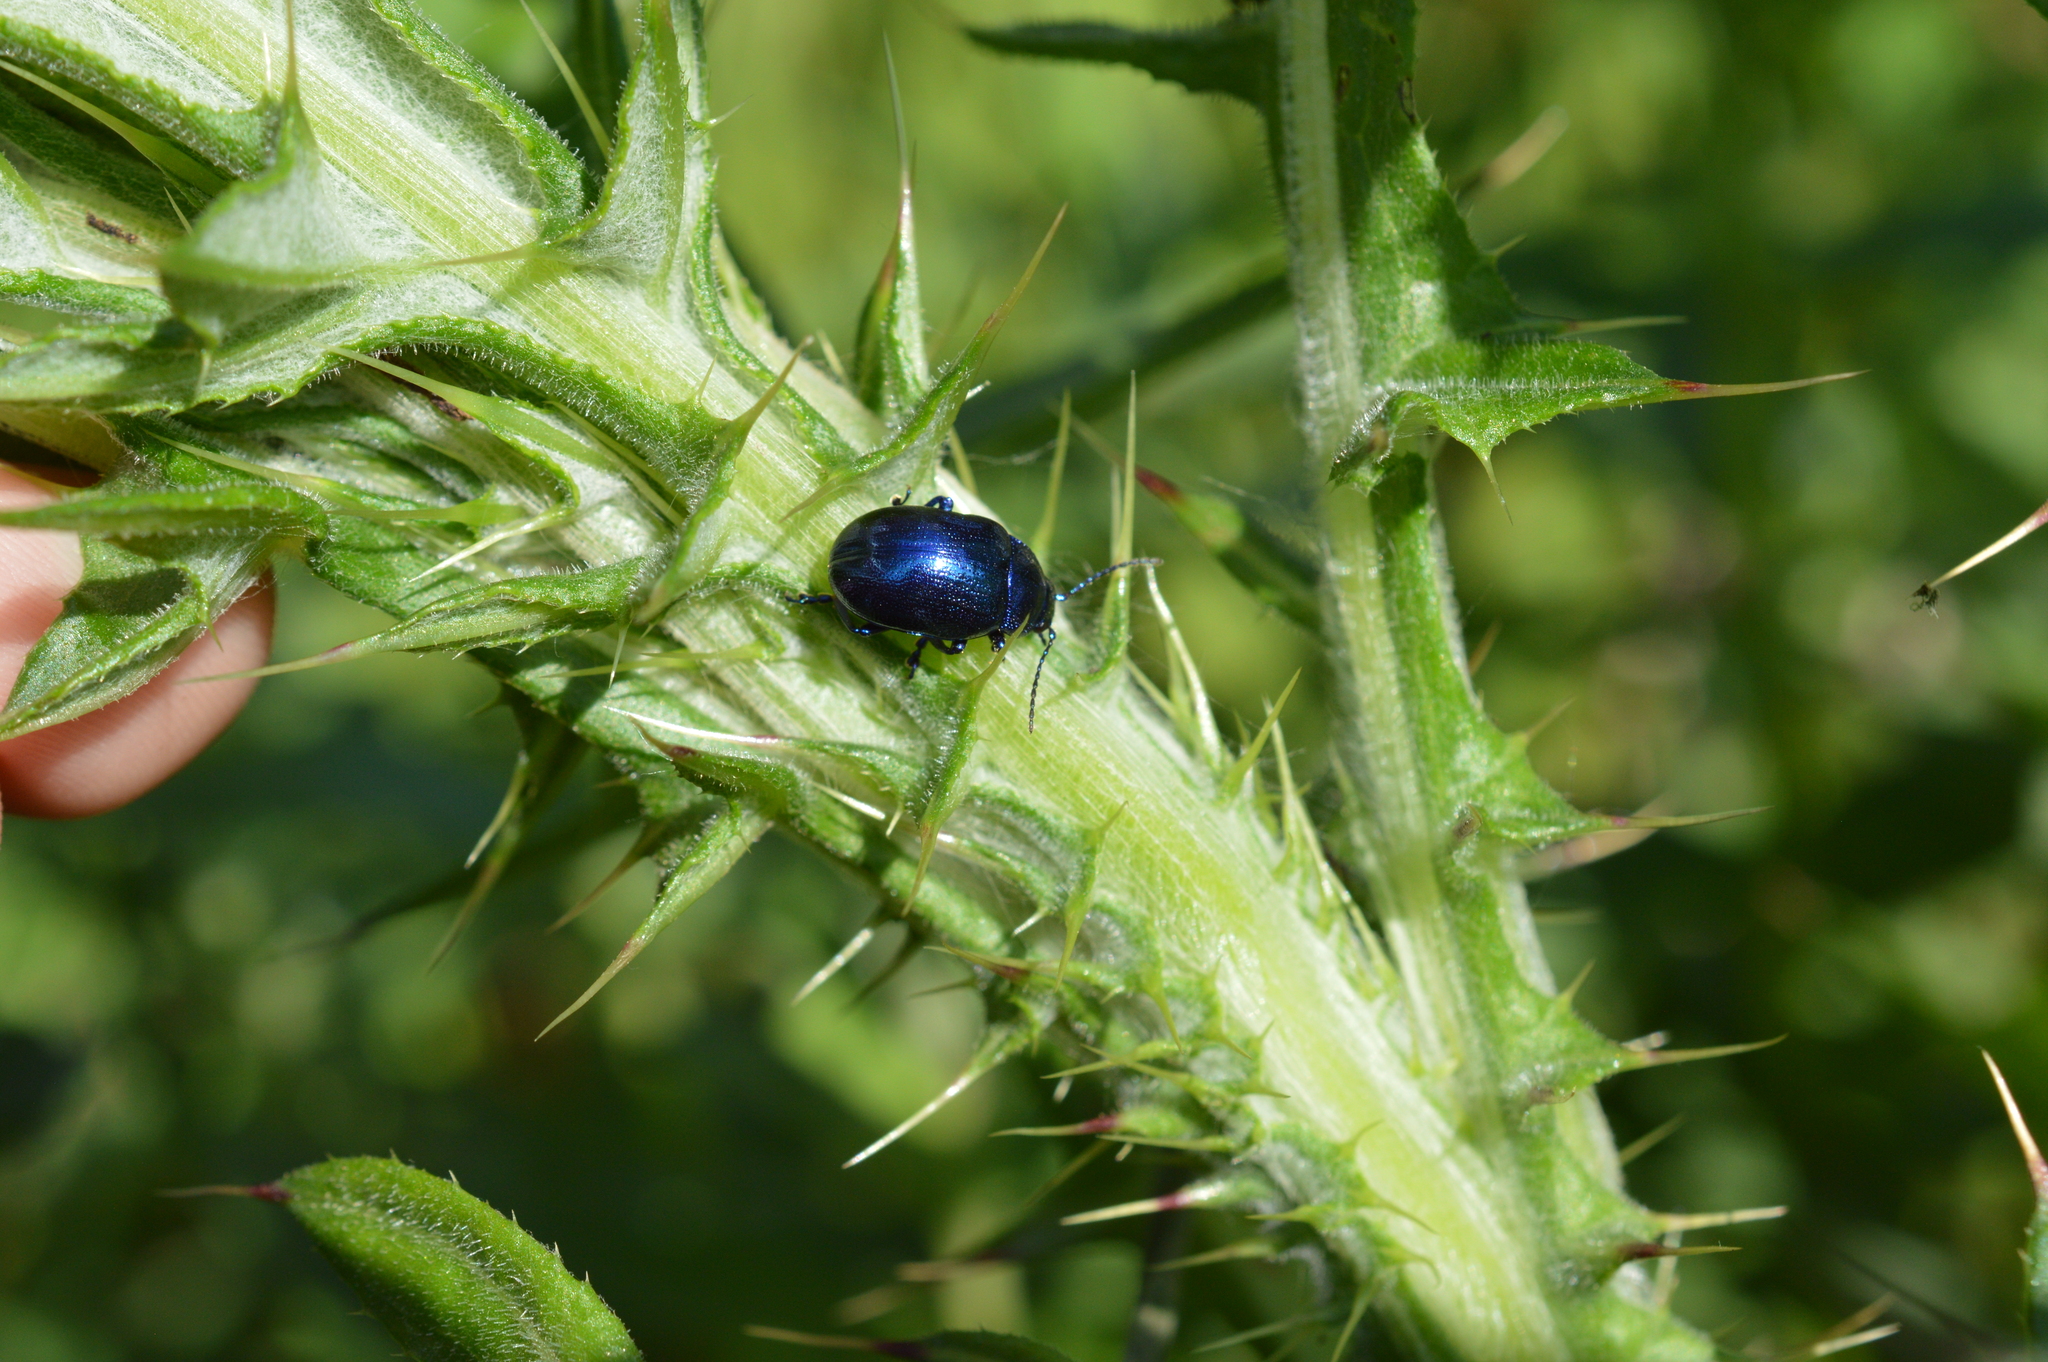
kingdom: Animalia
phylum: Arthropoda
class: Insecta
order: Coleoptera
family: Chrysomelidae
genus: Chrysolina
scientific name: Chrysolina coerulans
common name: Blue mint beetle
